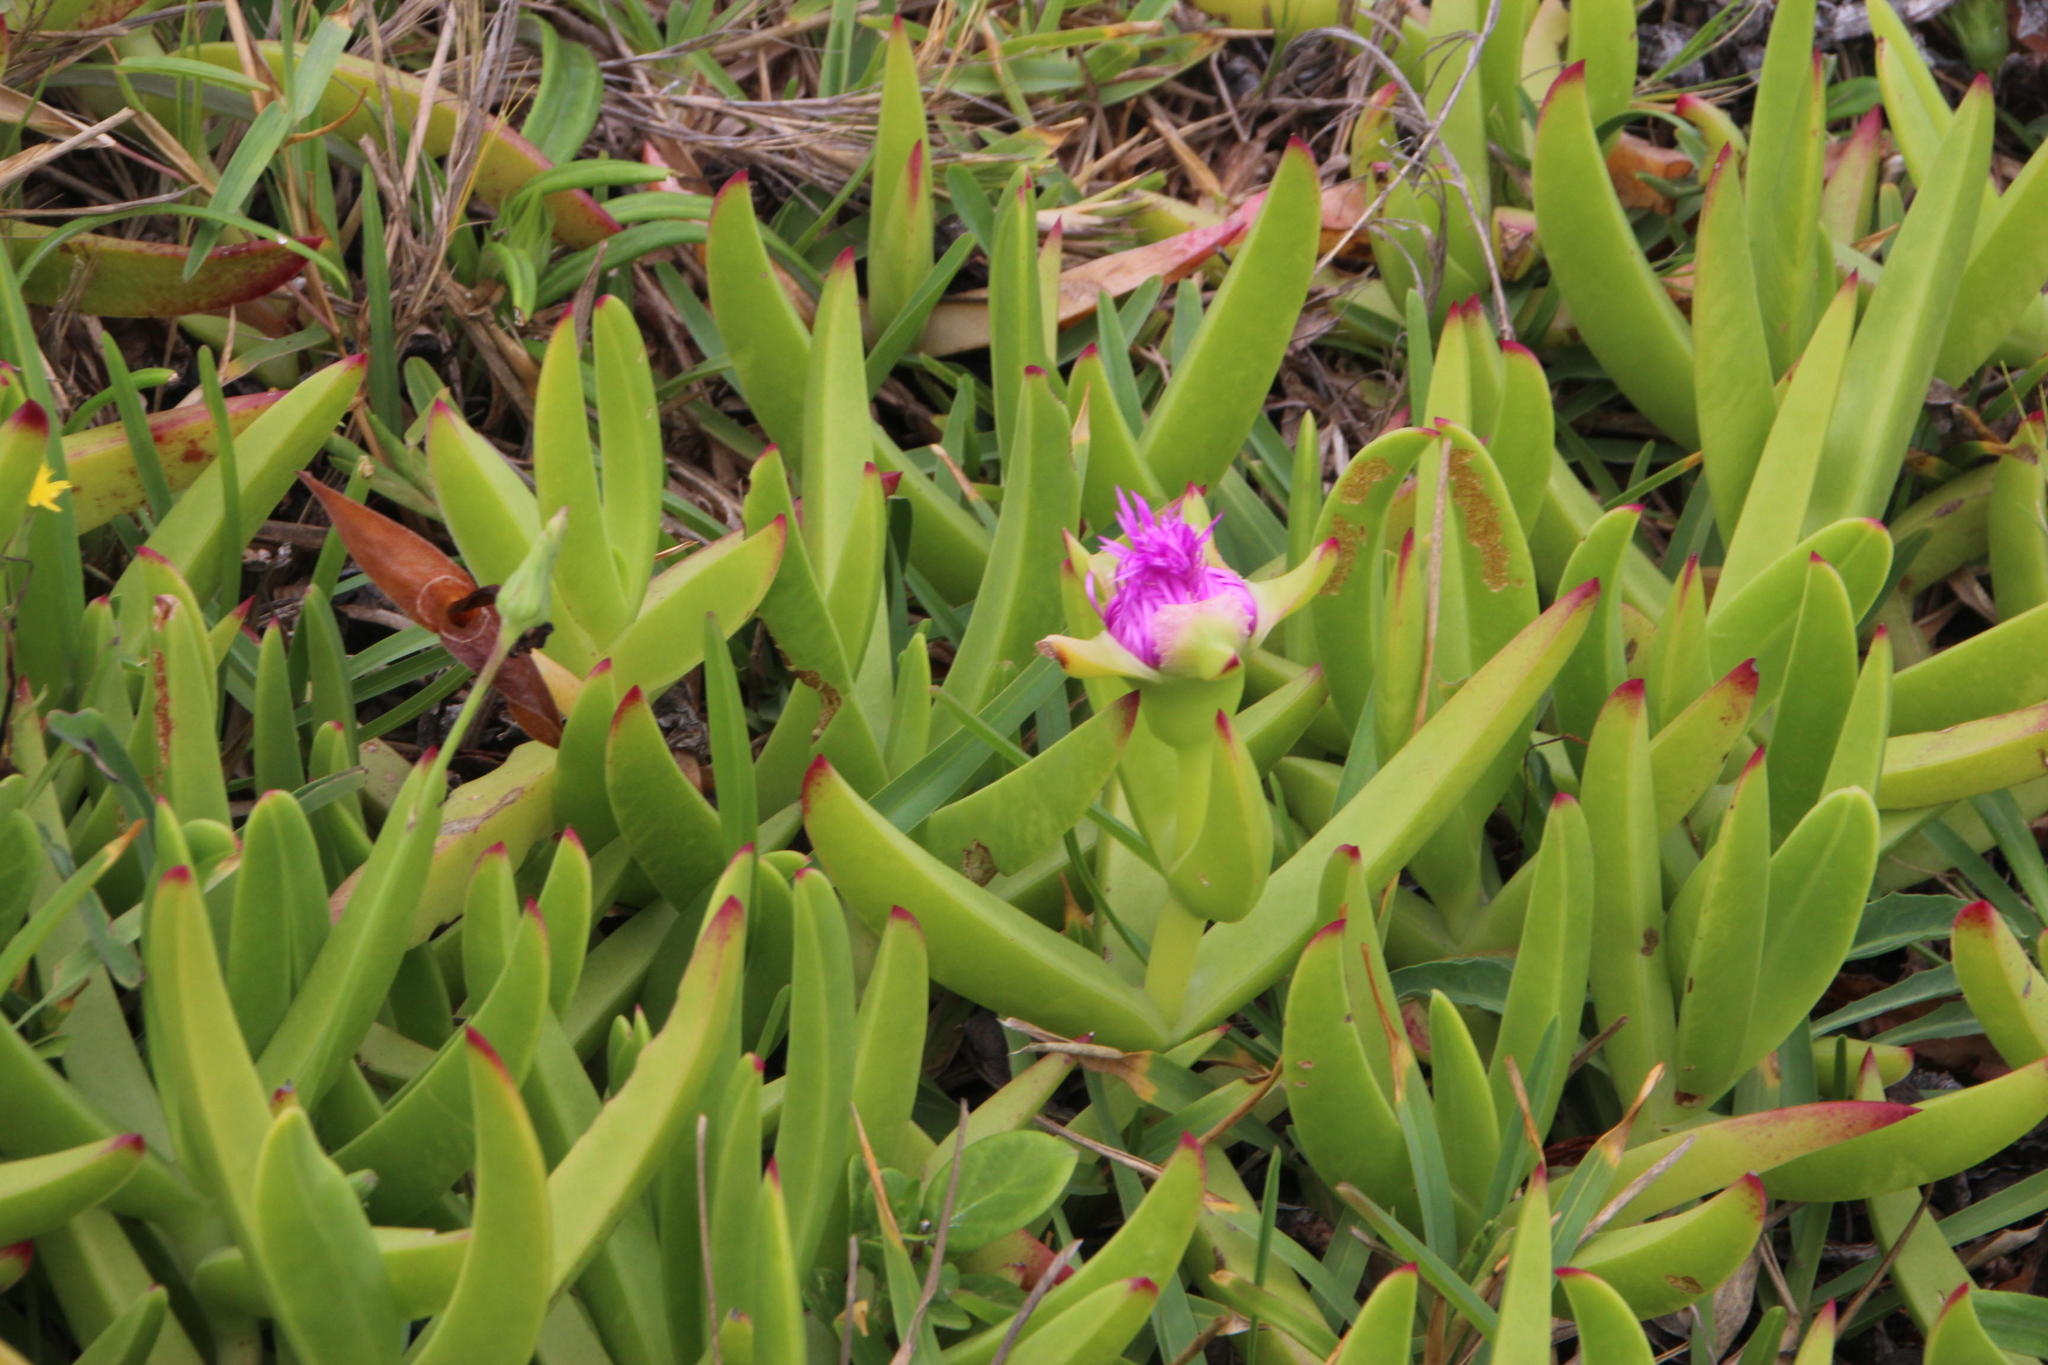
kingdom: Plantae
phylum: Tracheophyta
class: Magnoliopsida
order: Caryophyllales
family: Aizoaceae
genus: Carpobrotus
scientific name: Carpobrotus deliciosus
